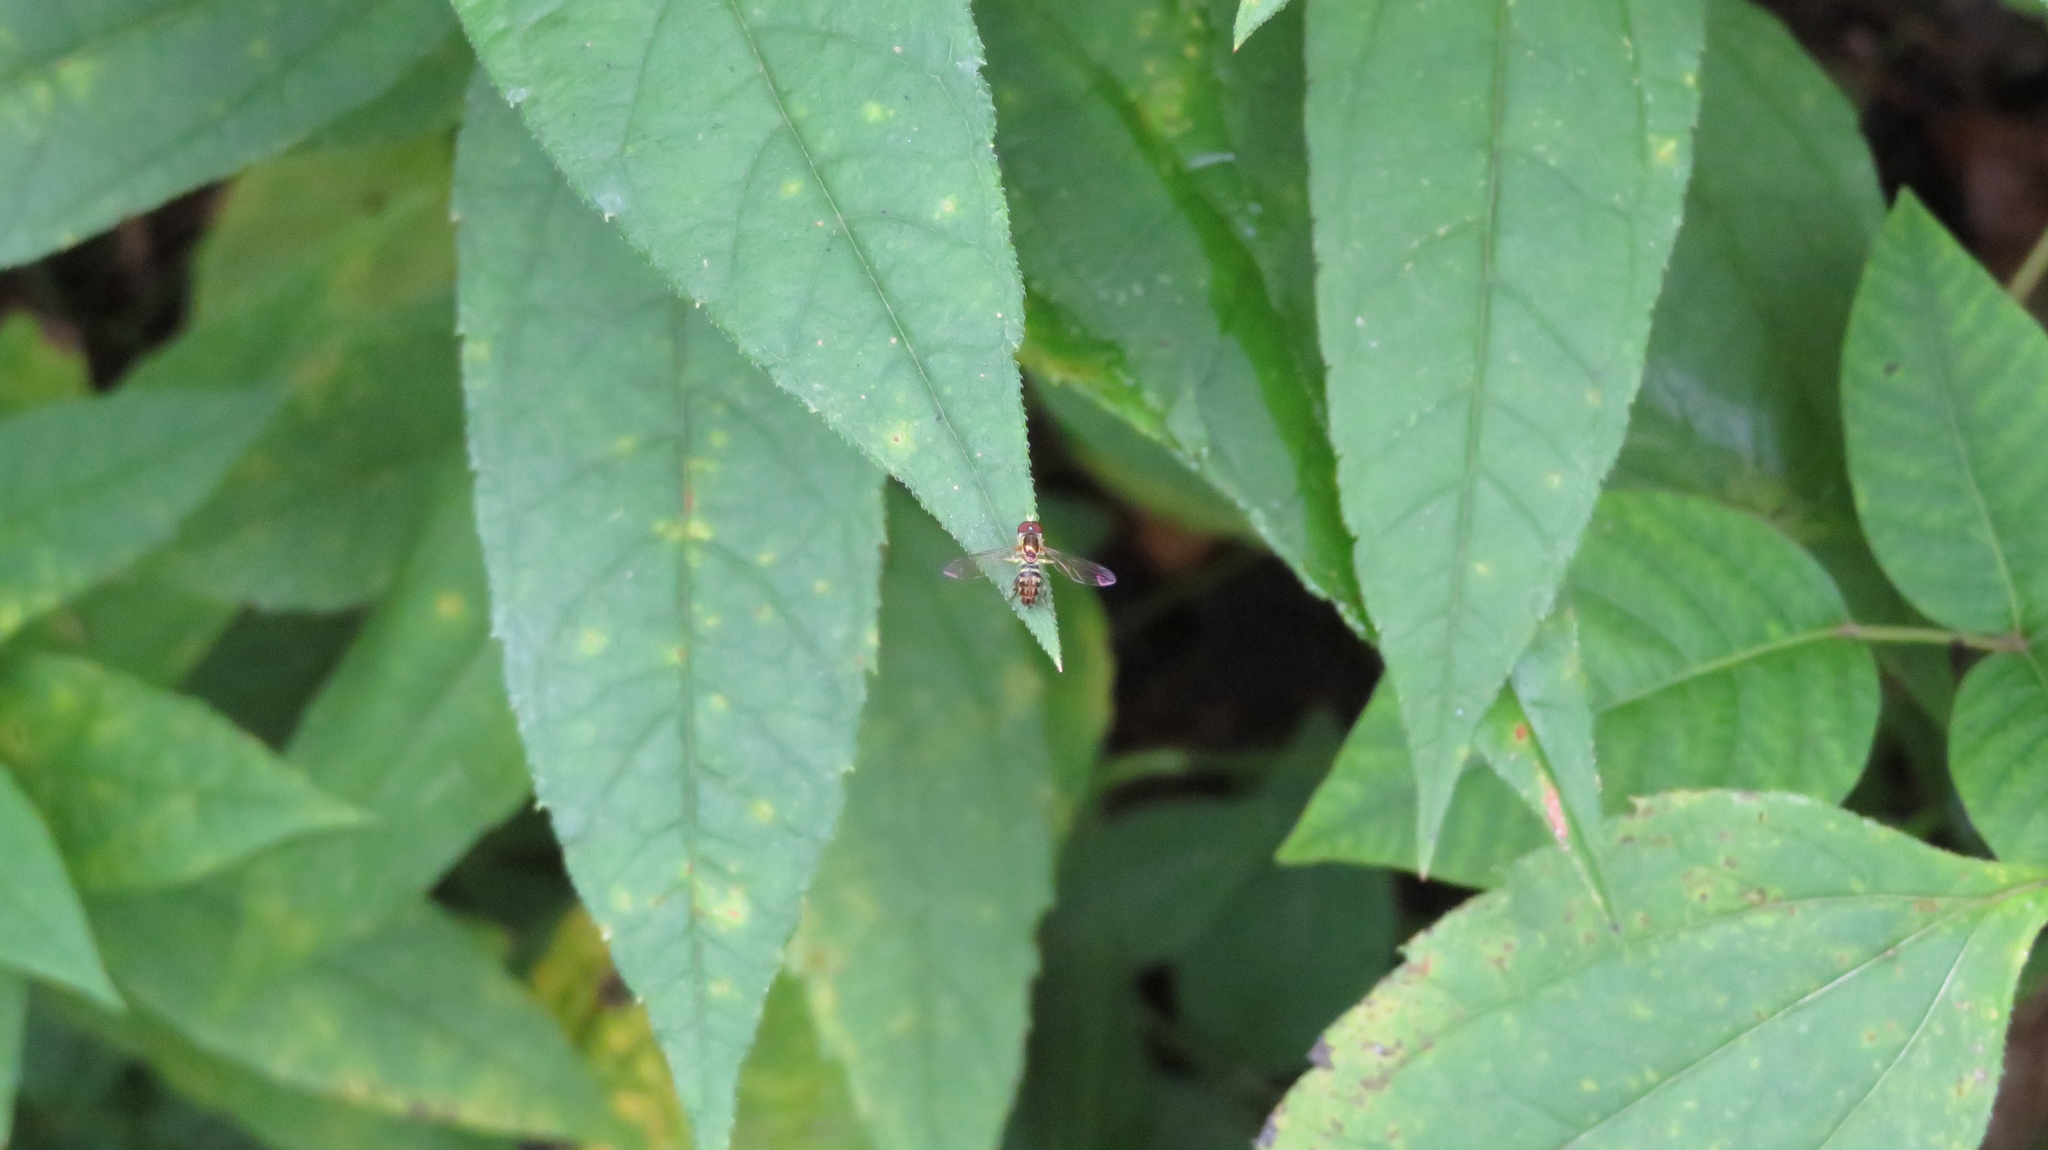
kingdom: Animalia
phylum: Arthropoda
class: Insecta
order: Diptera
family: Syrphidae
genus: Toxomerus
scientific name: Toxomerus geminatus
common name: Eastern calligrapher
